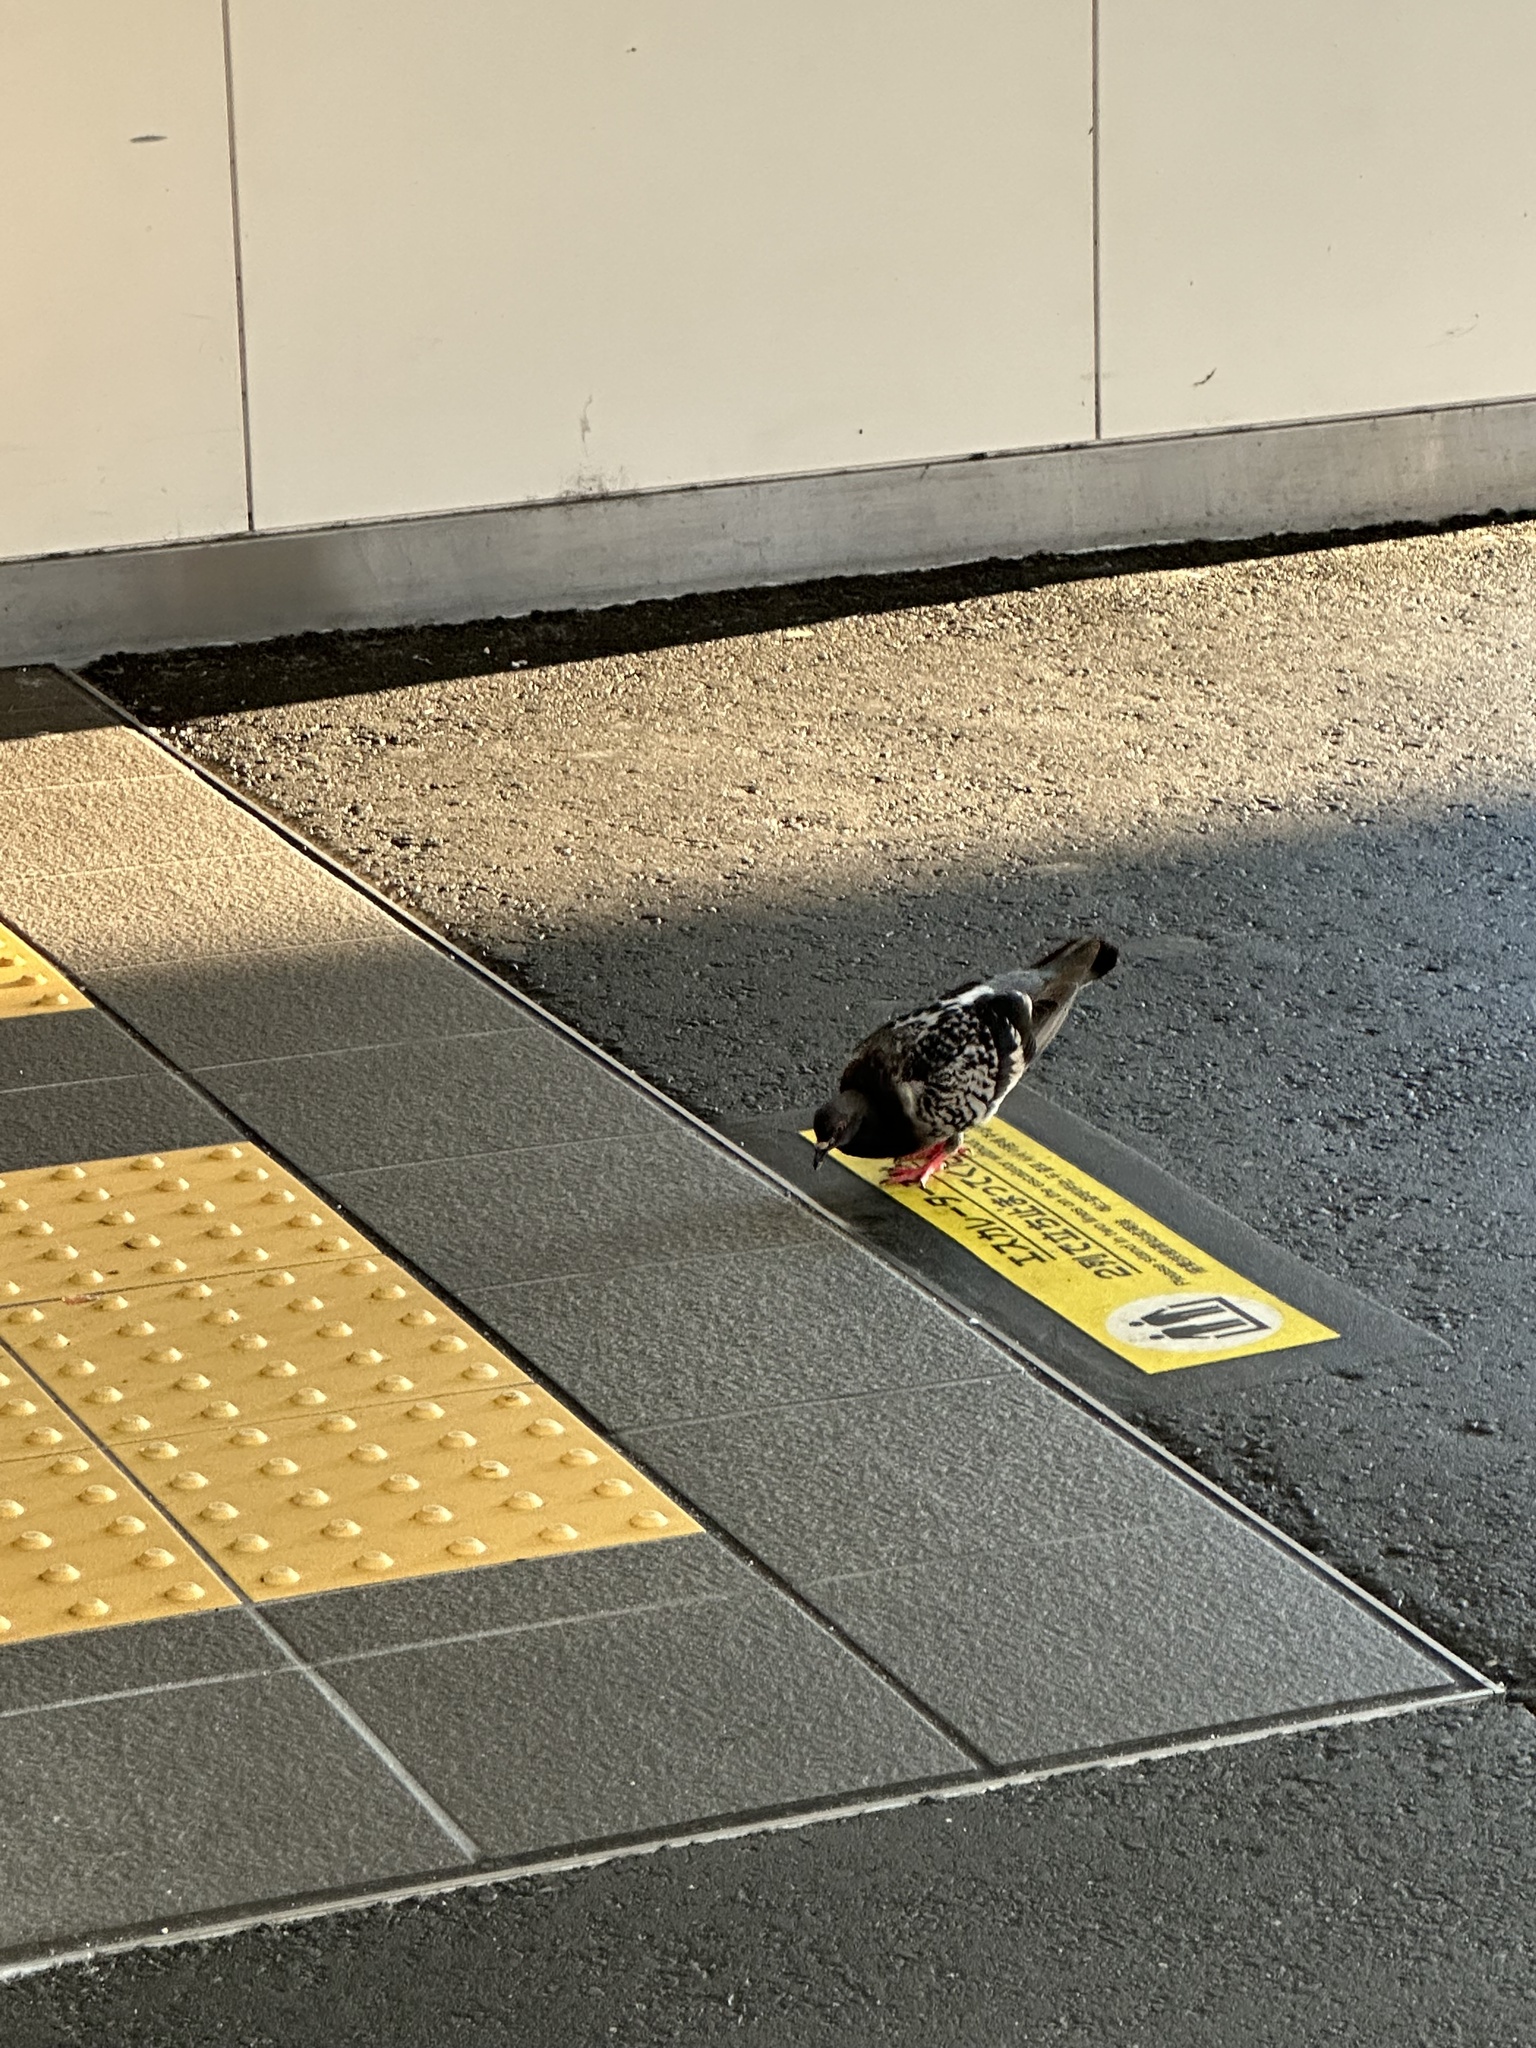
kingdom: Animalia
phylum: Chordata
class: Aves
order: Columbiformes
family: Columbidae
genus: Columba
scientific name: Columba livia
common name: Rock pigeon
